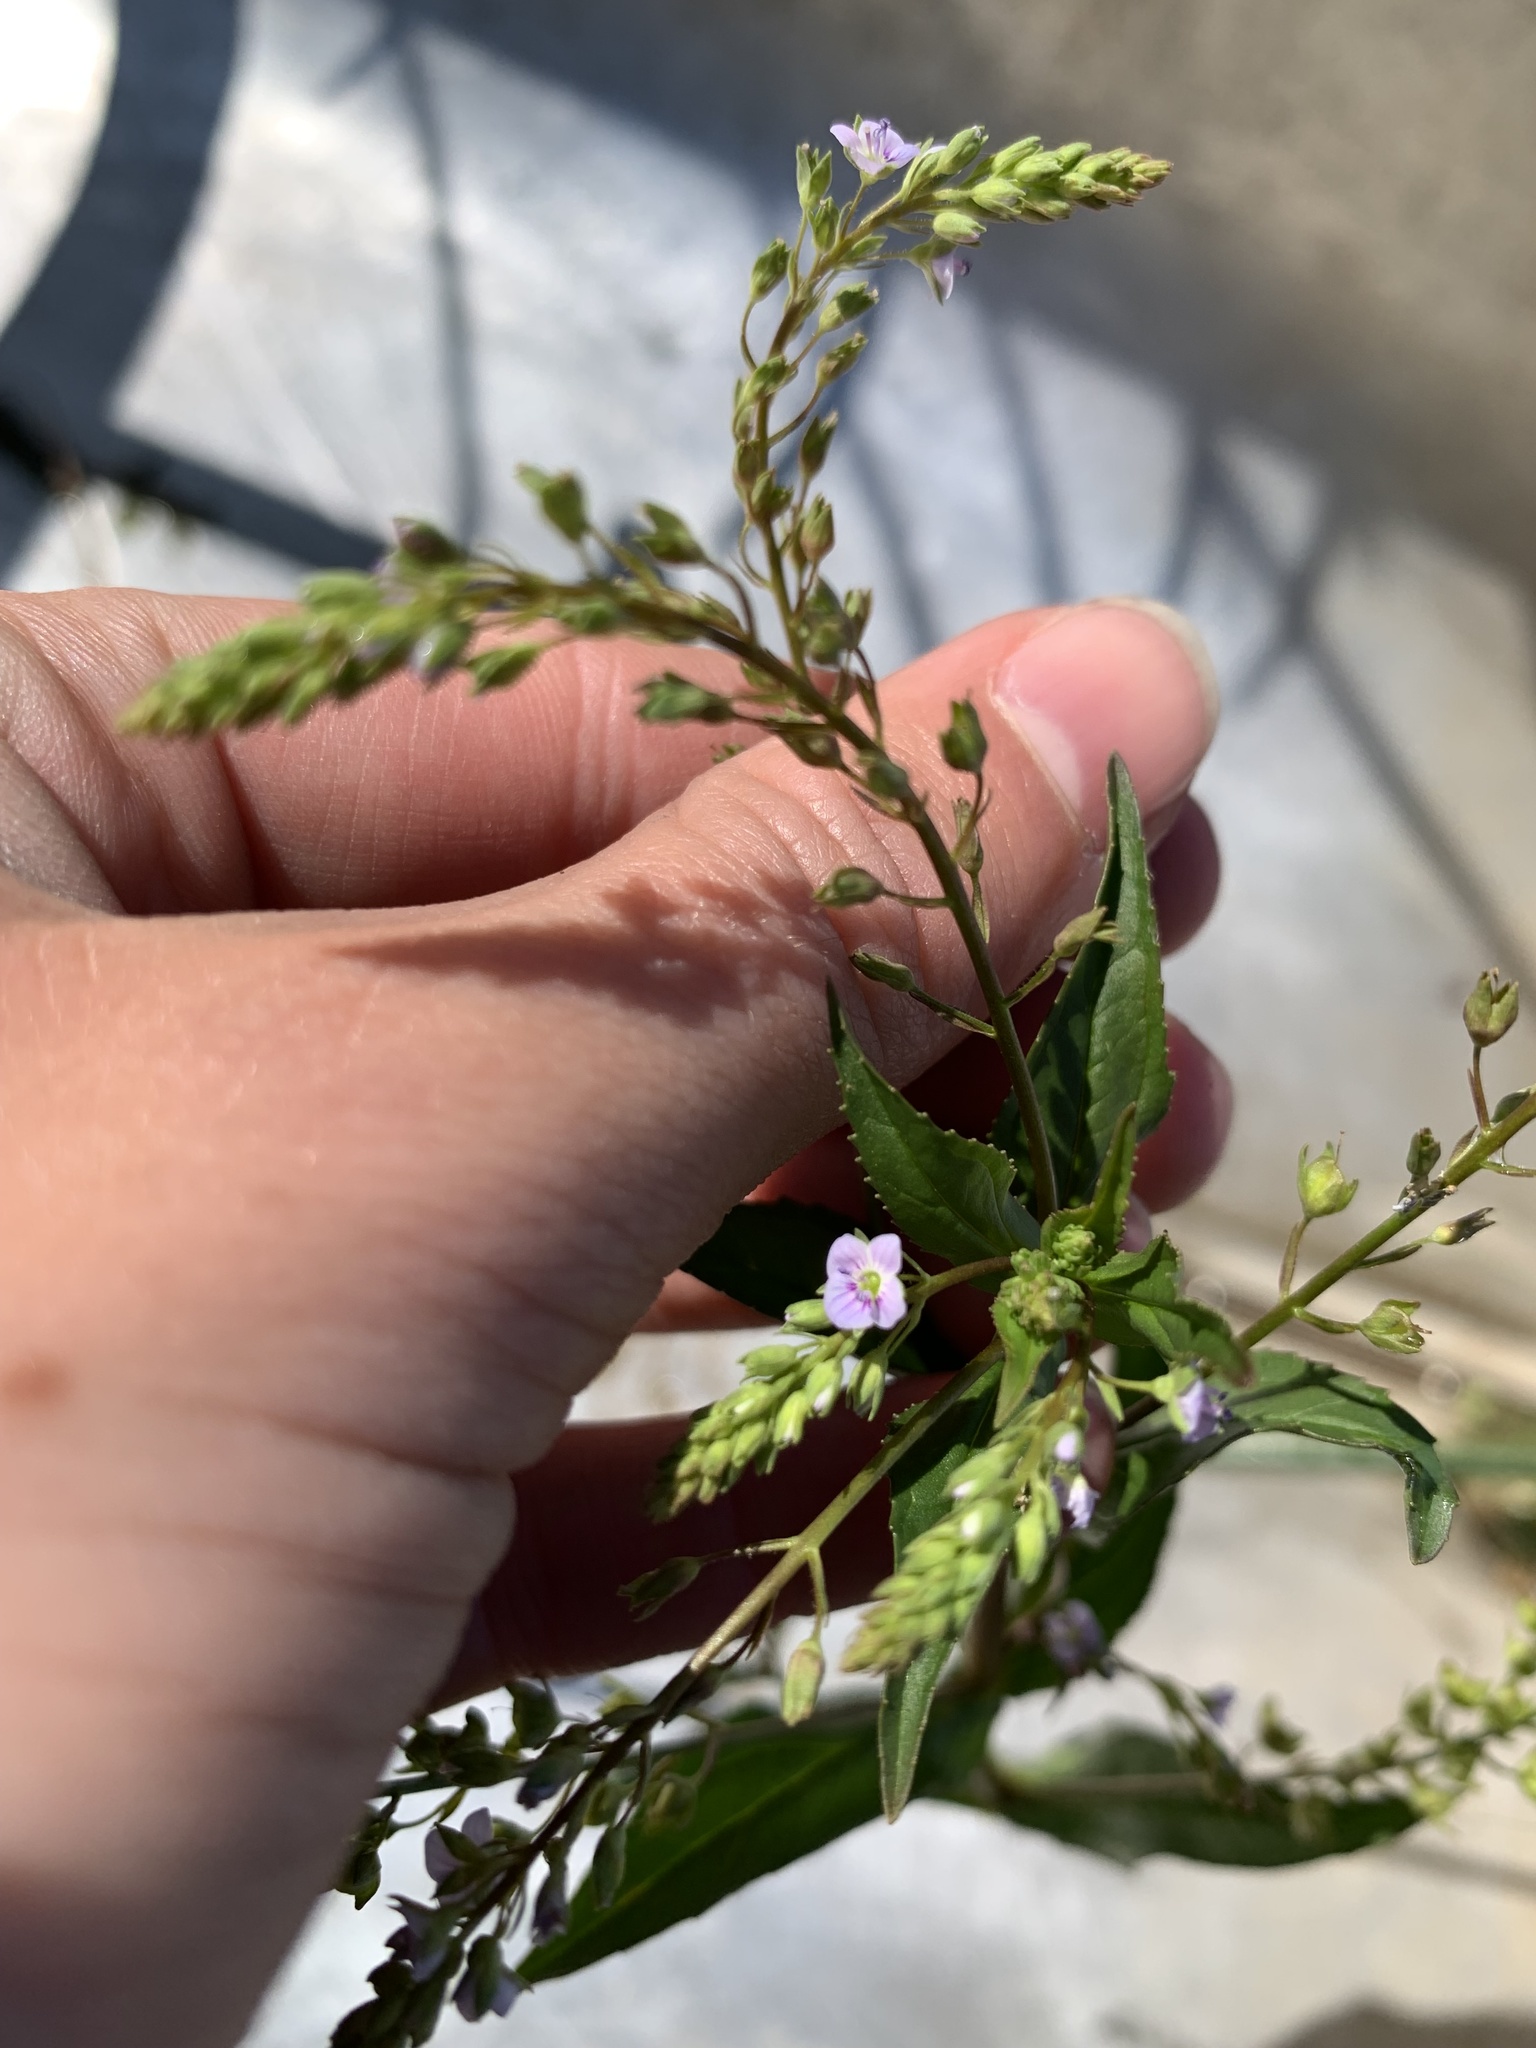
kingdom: Plantae
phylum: Tracheophyta
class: Magnoliopsida
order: Lamiales
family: Plantaginaceae
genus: Veronica
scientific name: Veronica anagallis-aquatica
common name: Water speedwell
